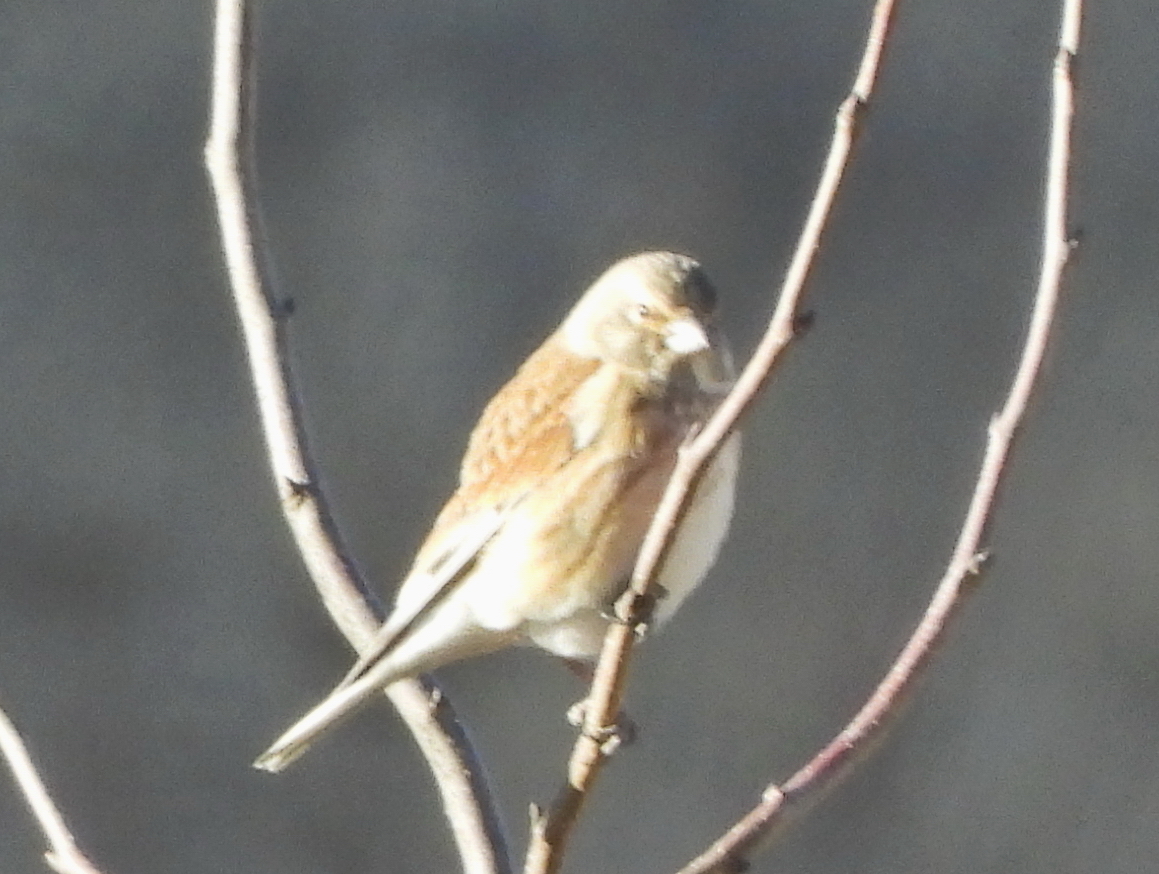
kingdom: Animalia
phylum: Chordata
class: Aves
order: Passeriformes
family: Fringillidae
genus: Linaria
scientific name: Linaria cannabina
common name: Common linnet
